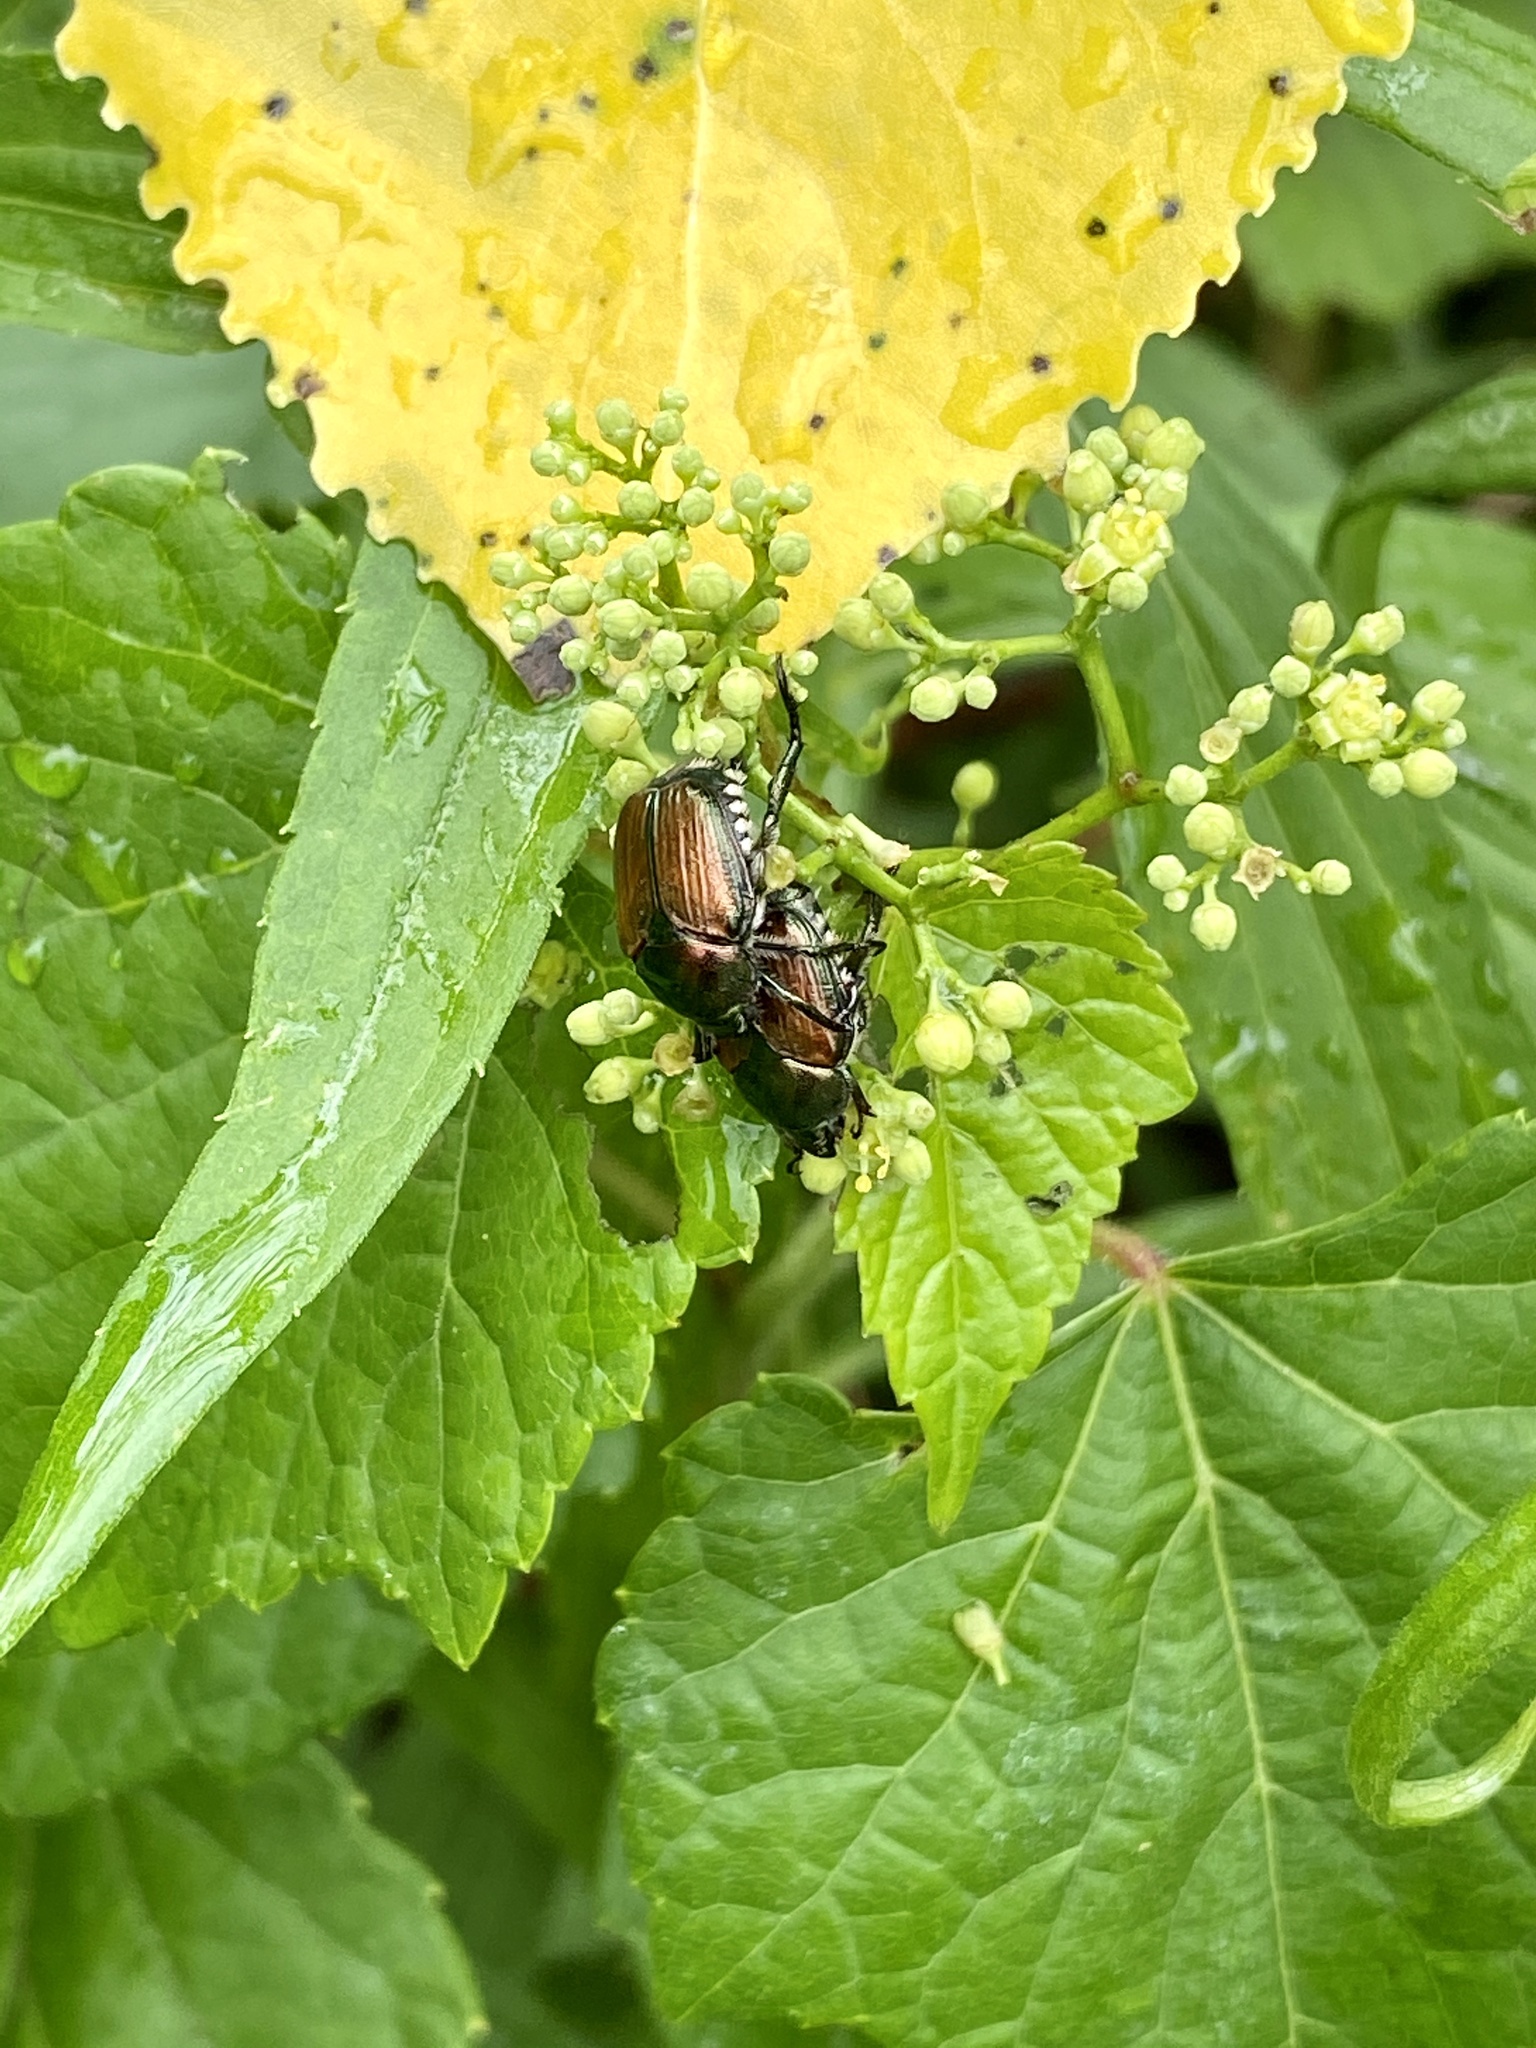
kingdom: Animalia
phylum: Arthropoda
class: Insecta
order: Coleoptera
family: Scarabaeidae
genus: Popillia
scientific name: Popillia japonica
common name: Japanese beetle
